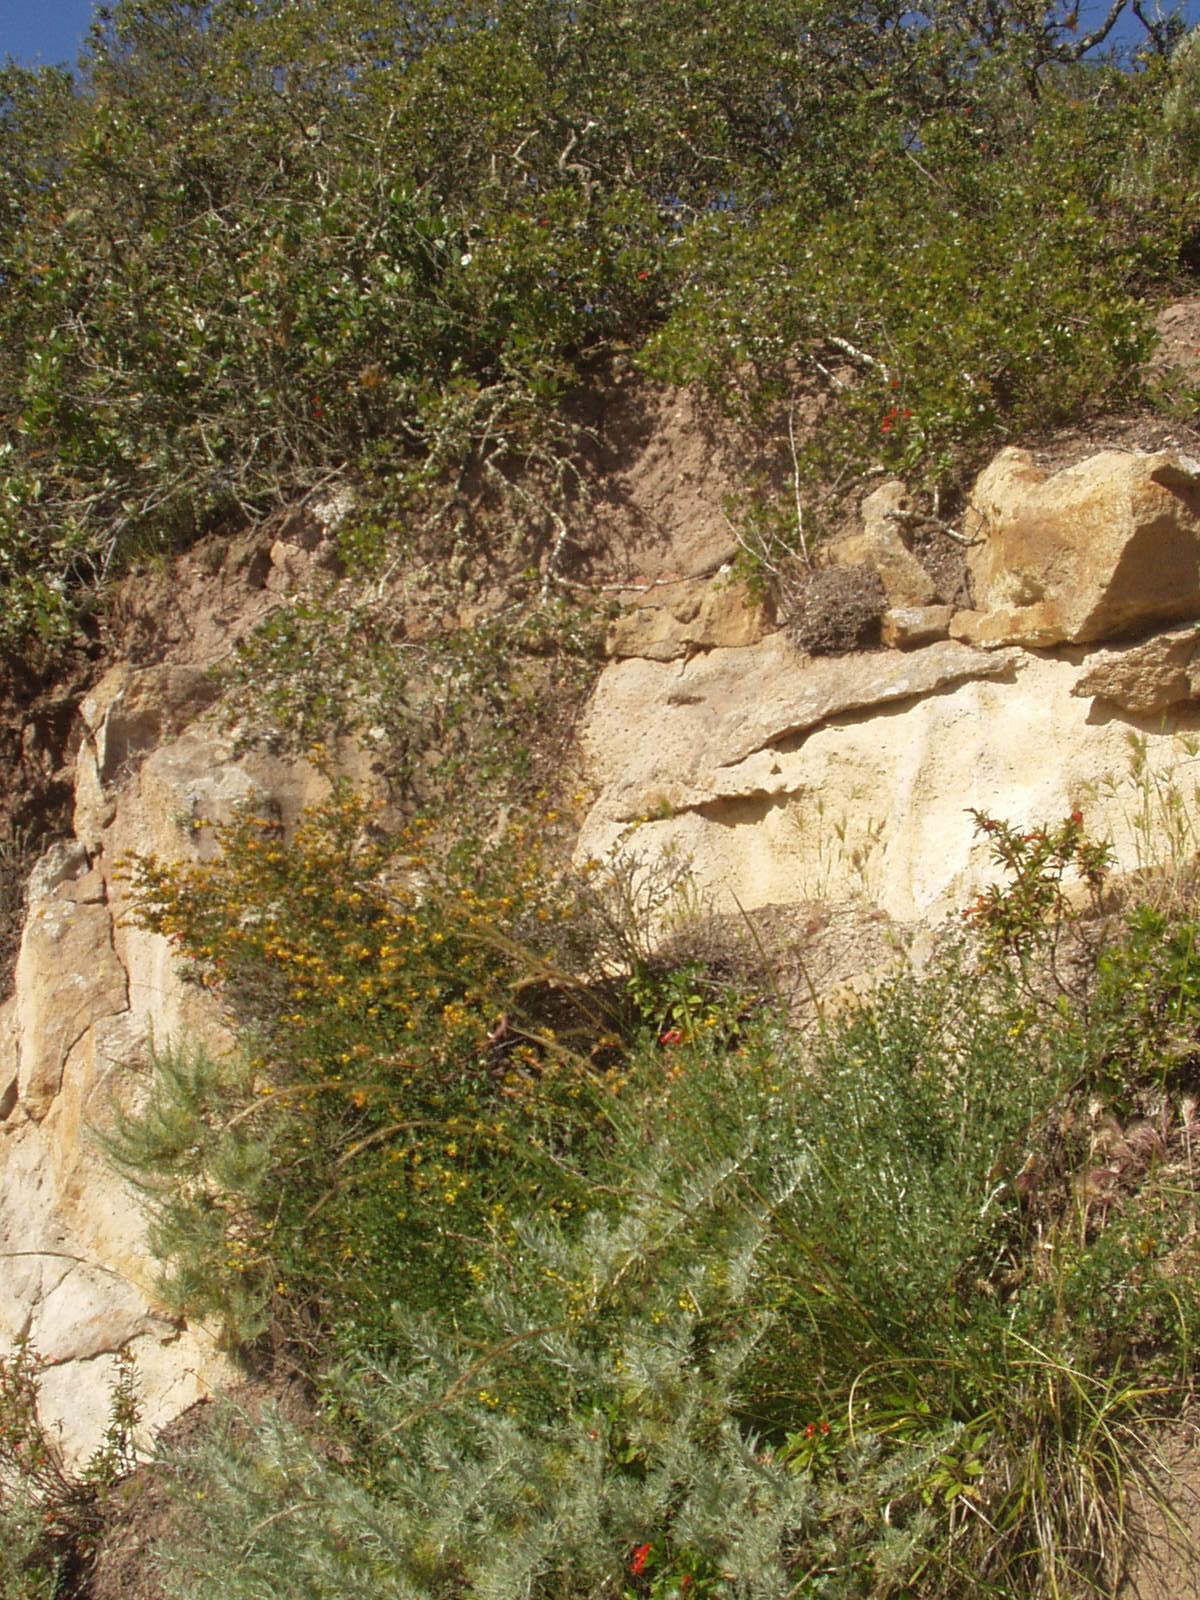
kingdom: Plantae
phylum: Tracheophyta
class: Magnoliopsida
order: Lamiales
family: Phrymaceae
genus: Diplacus
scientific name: Diplacus parviflorus
